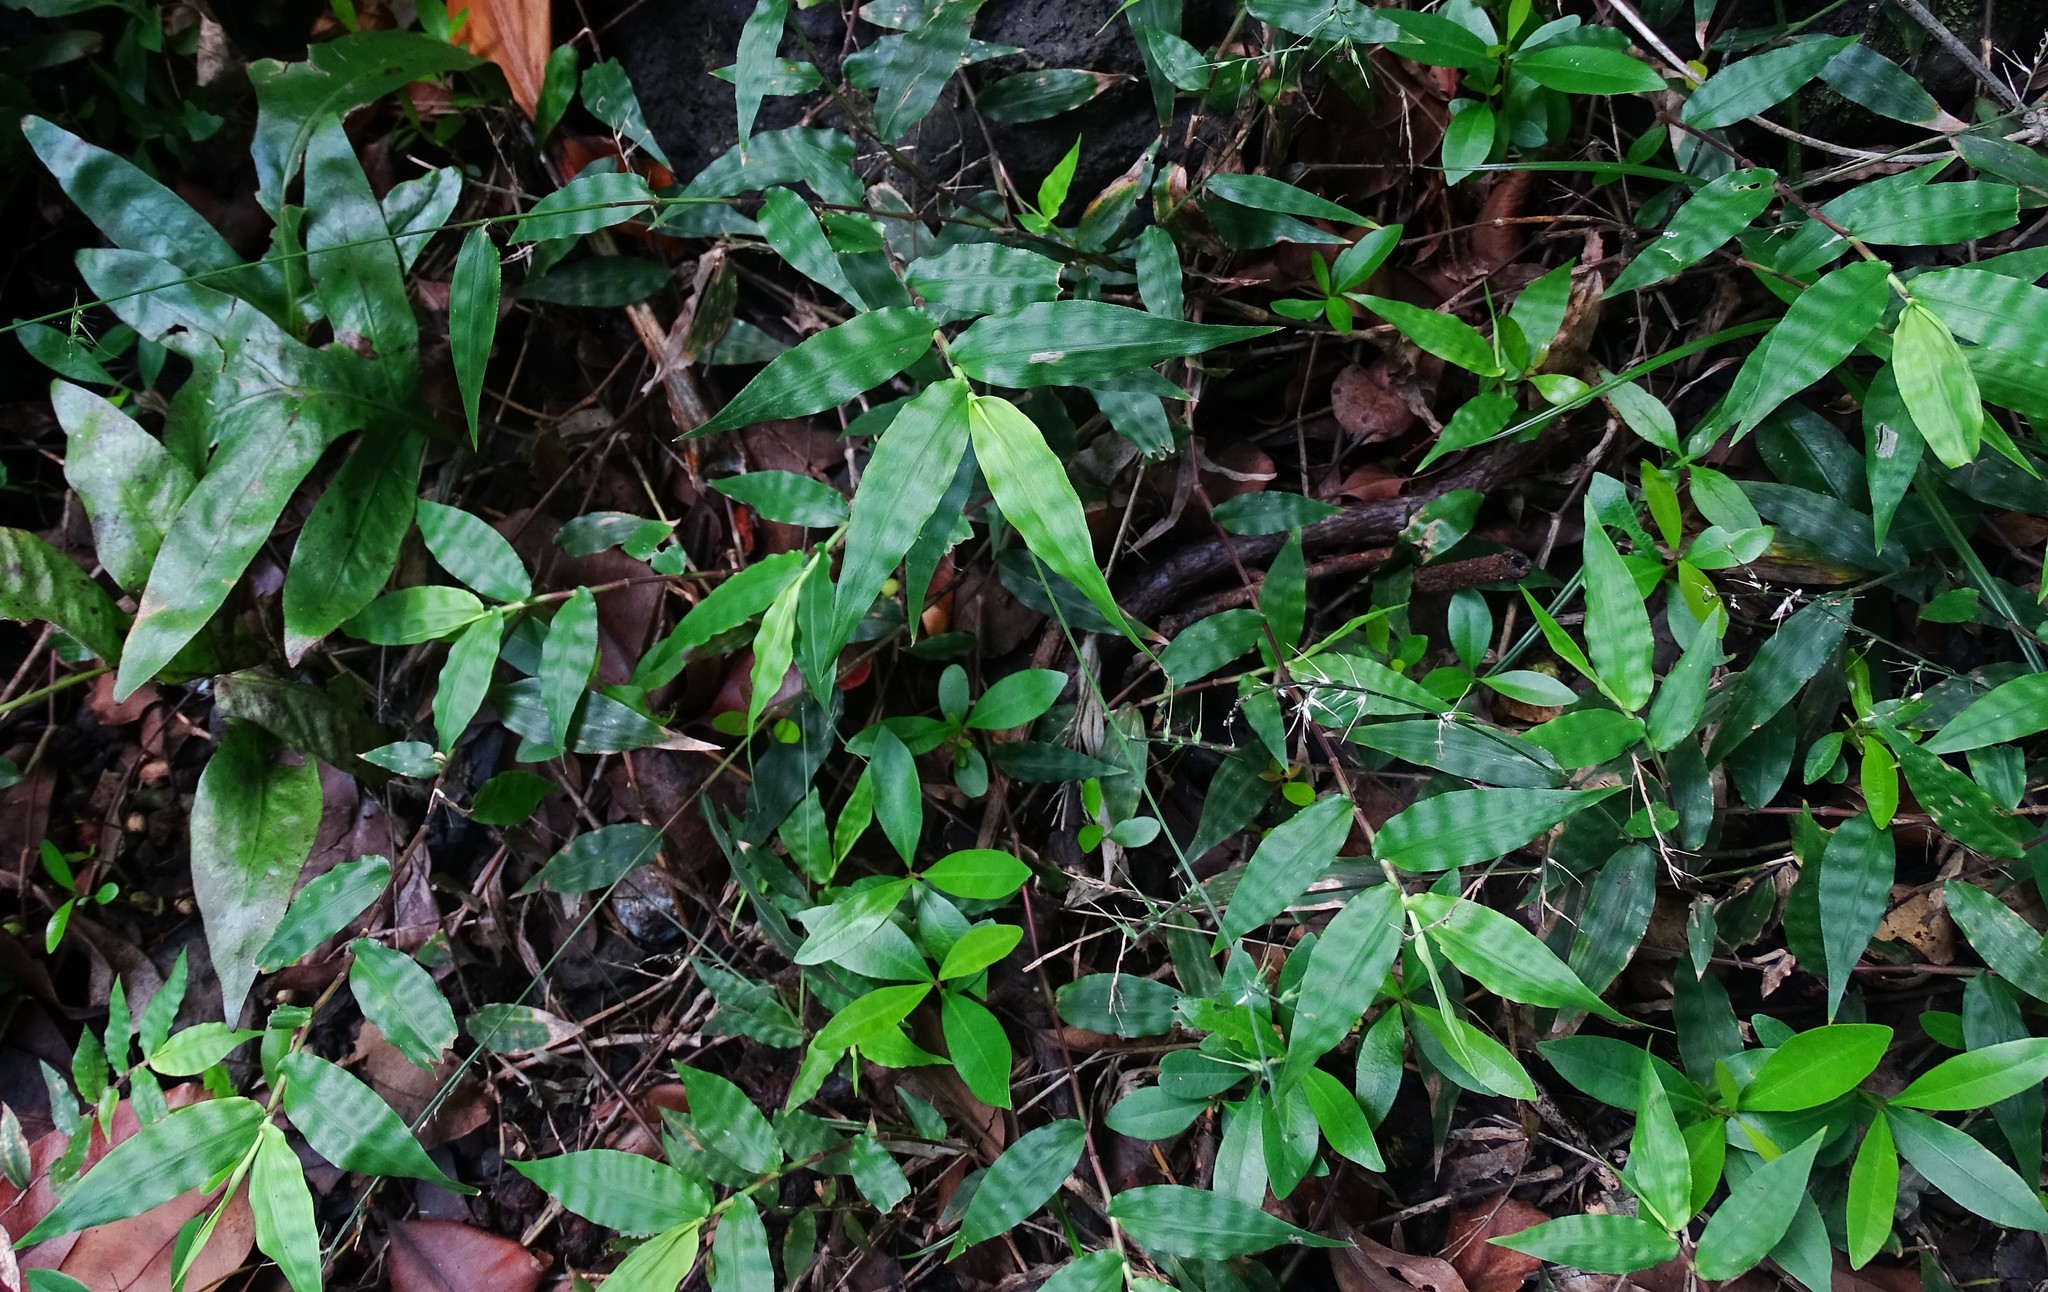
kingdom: Plantae
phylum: Tracheophyta
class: Liliopsida
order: Poales
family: Poaceae
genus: Oplismenus
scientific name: Oplismenus compositus
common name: Running mountain grass
